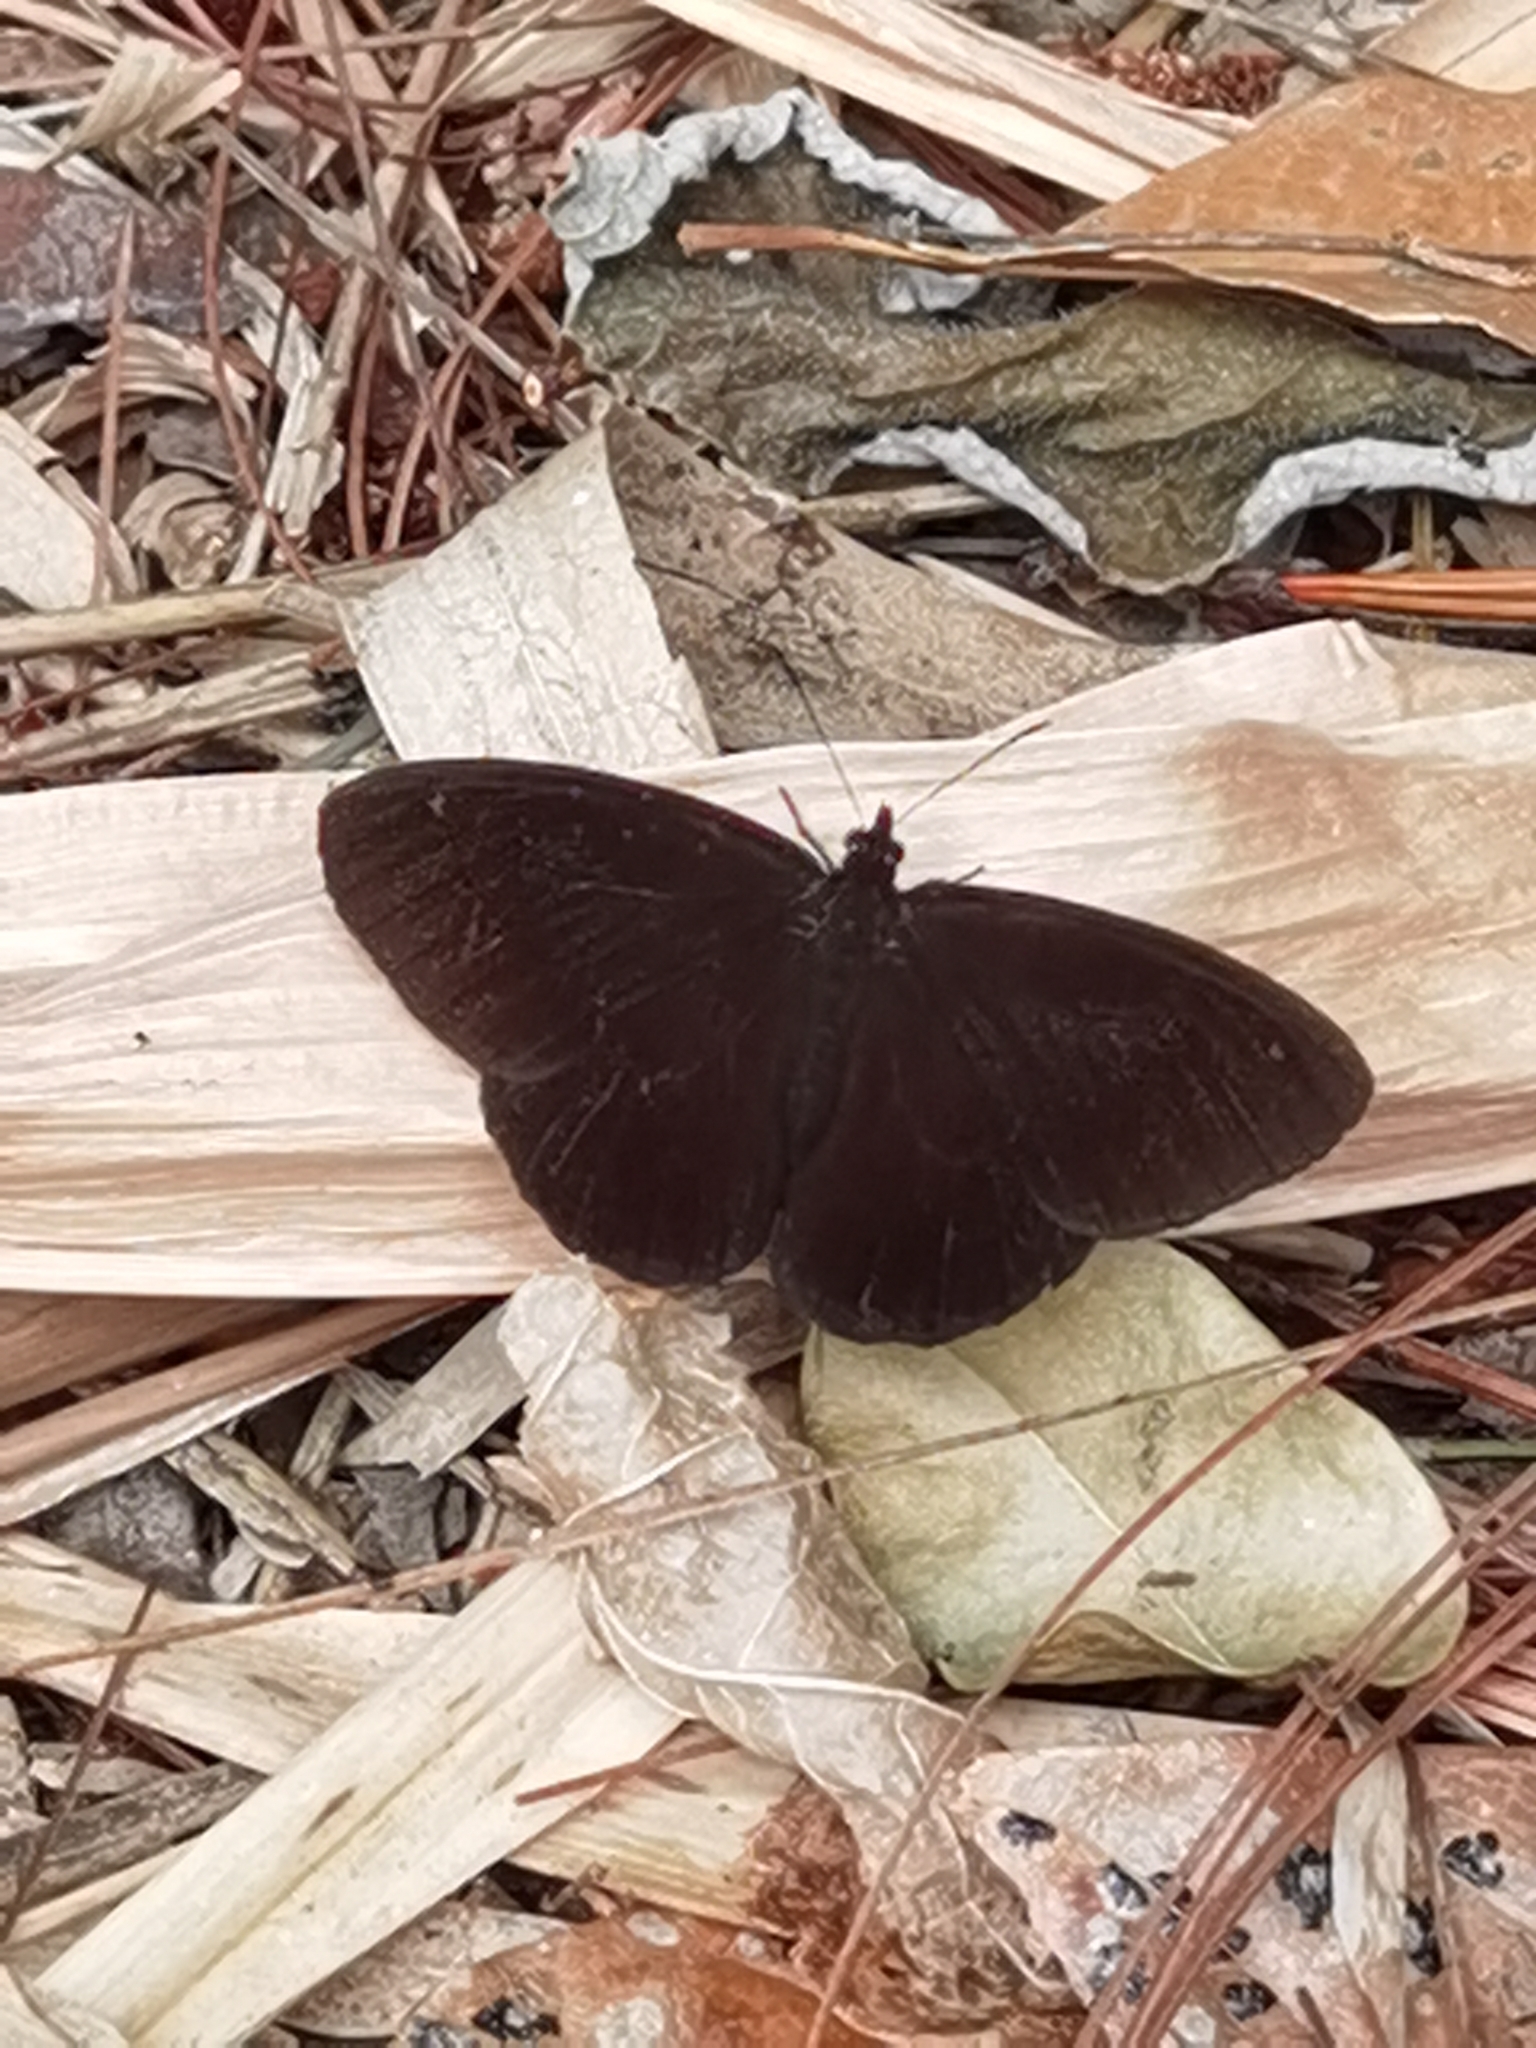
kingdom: Animalia
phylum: Arthropoda
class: Insecta
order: Lepidoptera
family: Nymphalidae
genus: Pedaliodes
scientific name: Pedaliodes
